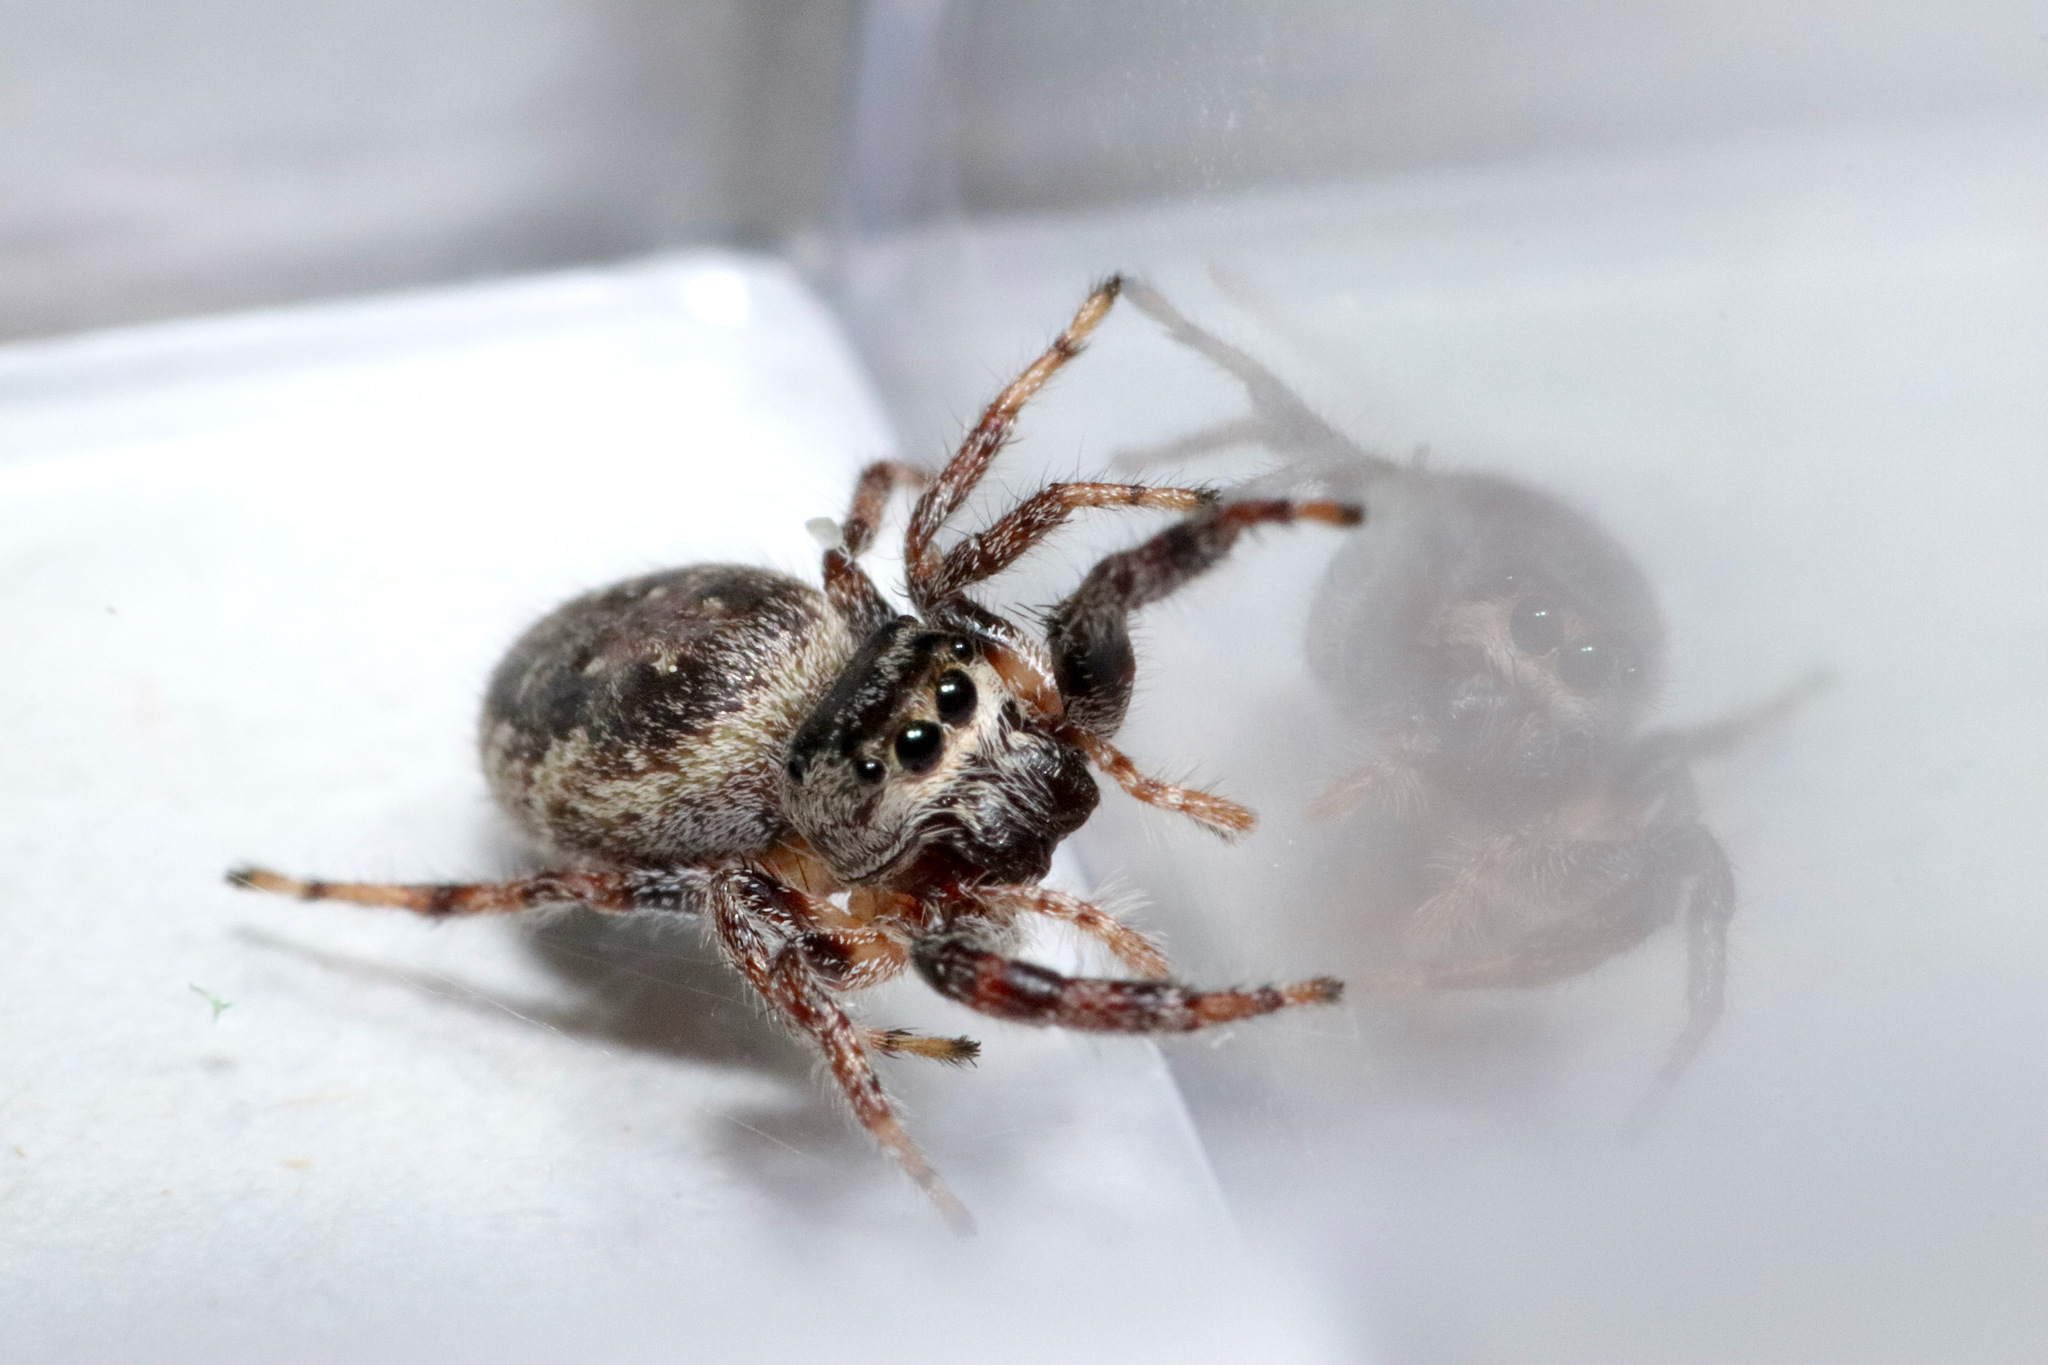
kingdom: Animalia
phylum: Arthropoda
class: Arachnida
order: Araneae
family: Salticidae
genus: Eris
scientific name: Eris militaris
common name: Bronze jumper
